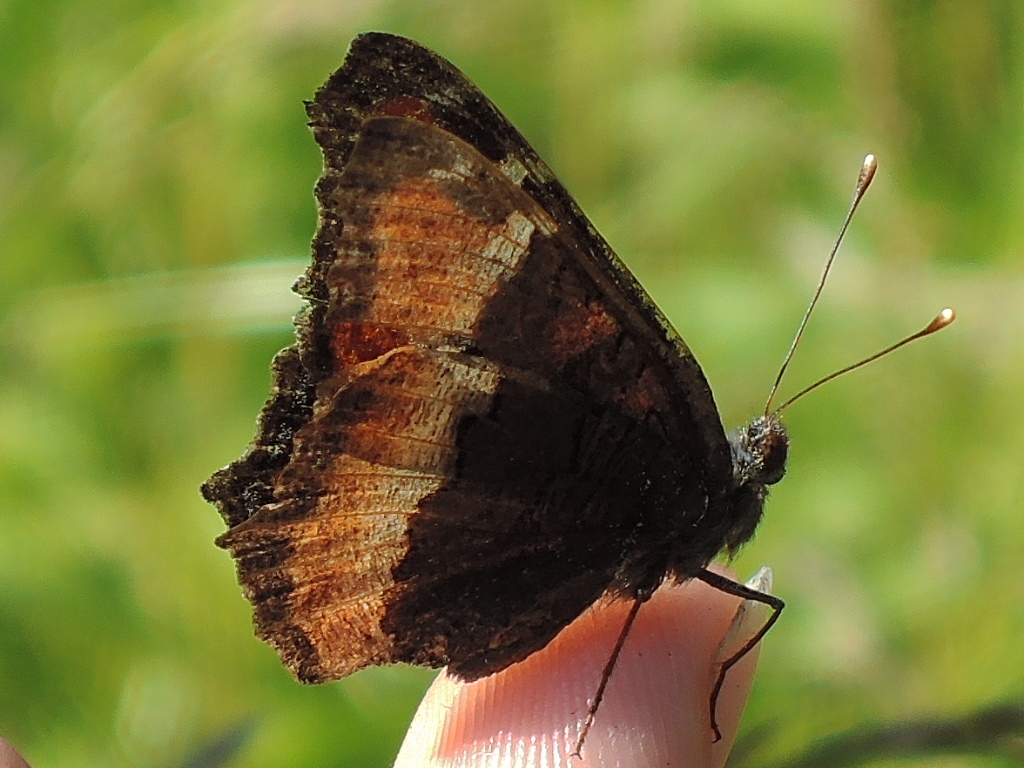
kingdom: Animalia
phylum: Arthropoda
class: Insecta
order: Lepidoptera
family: Nymphalidae
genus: Aglais
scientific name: Aglais milberti
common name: Milbert's tortoiseshell
